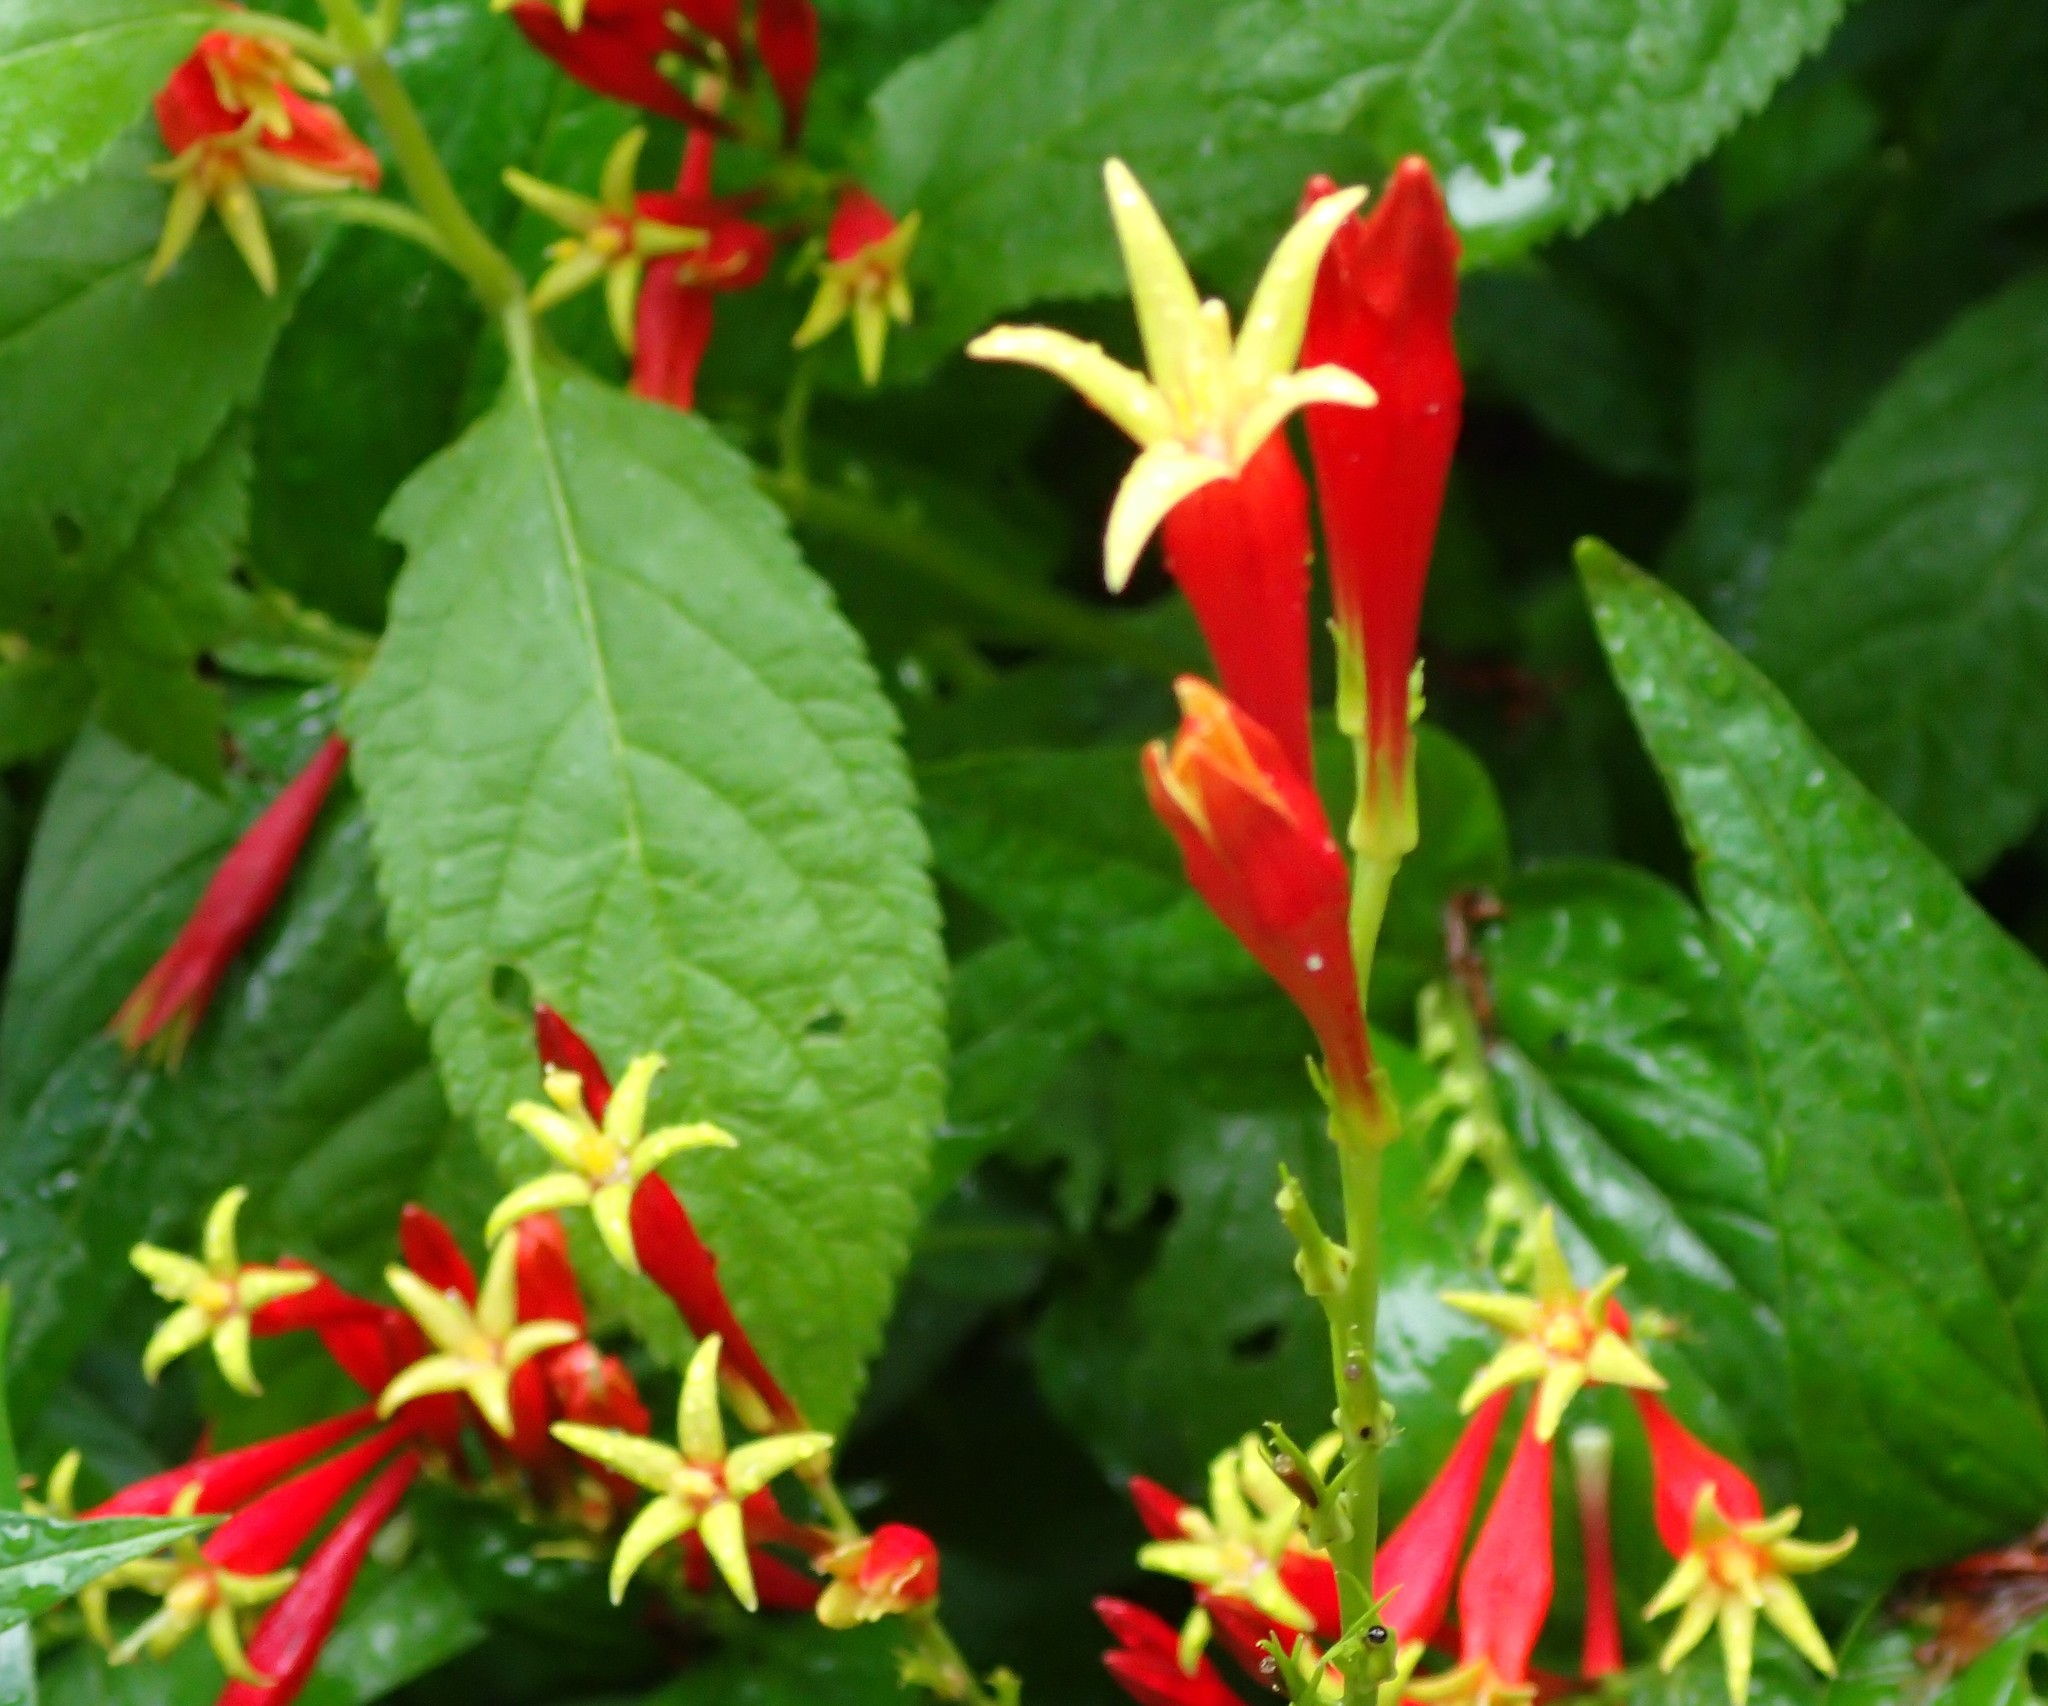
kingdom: Plantae
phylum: Tracheophyta
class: Magnoliopsida
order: Gentianales
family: Loganiaceae
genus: Spigelia
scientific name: Spigelia marilandica
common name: Indian-pink
